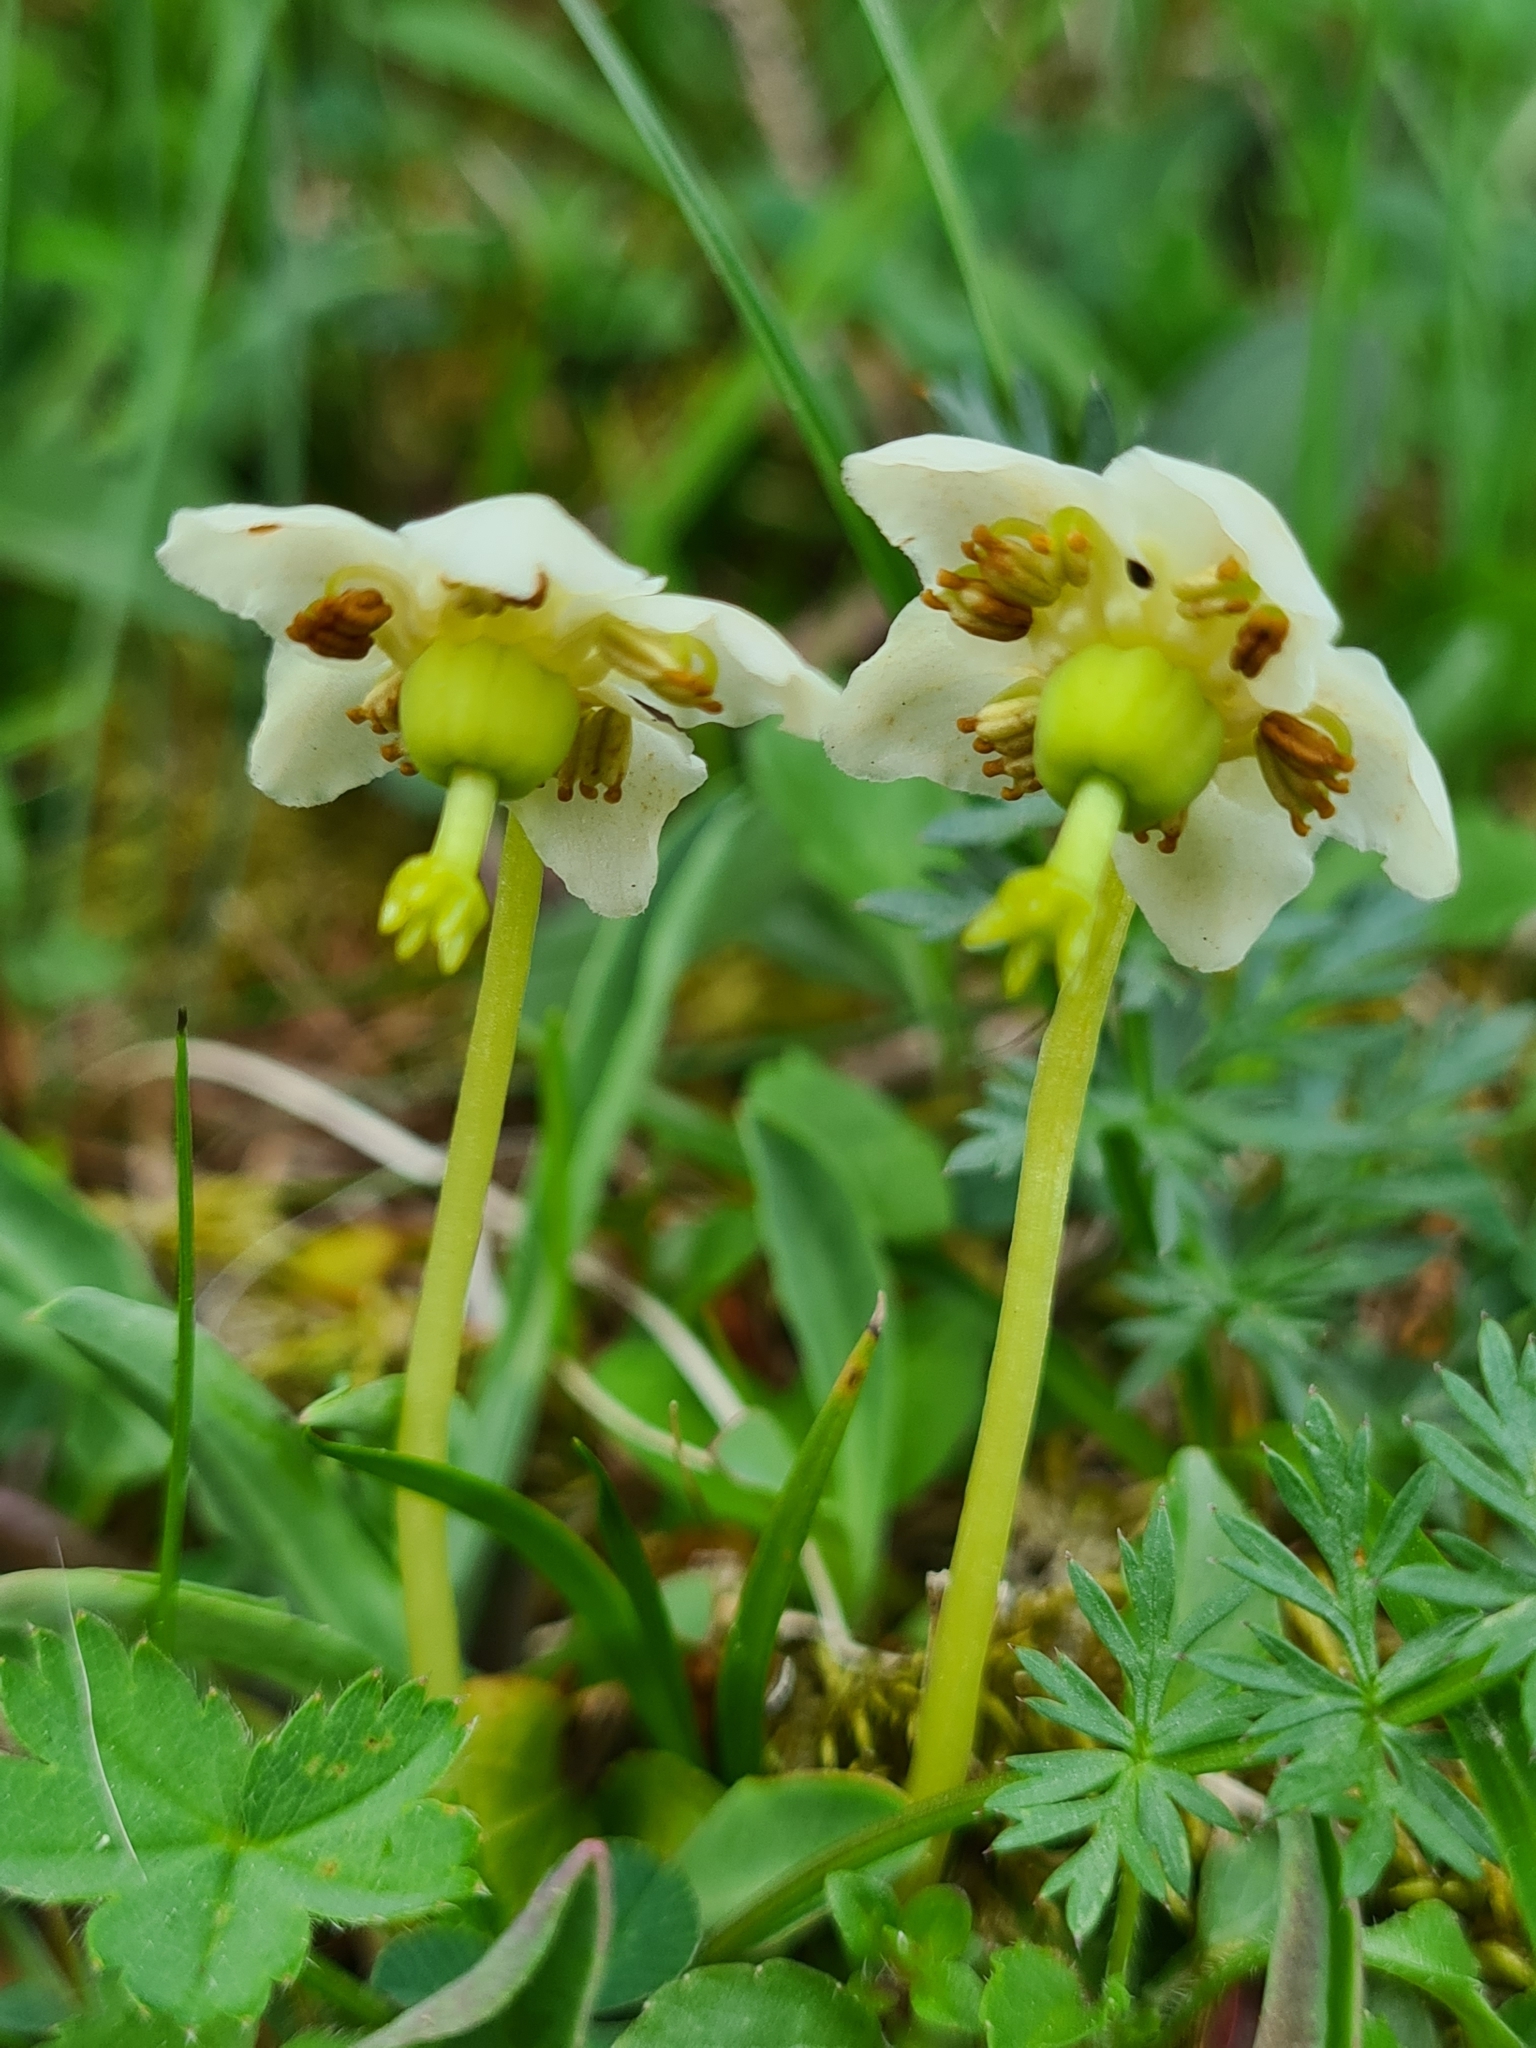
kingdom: Plantae
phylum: Tracheophyta
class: Magnoliopsida
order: Ericales
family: Ericaceae
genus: Moneses
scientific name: Moneses uniflora
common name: One-flowered wintergreen
